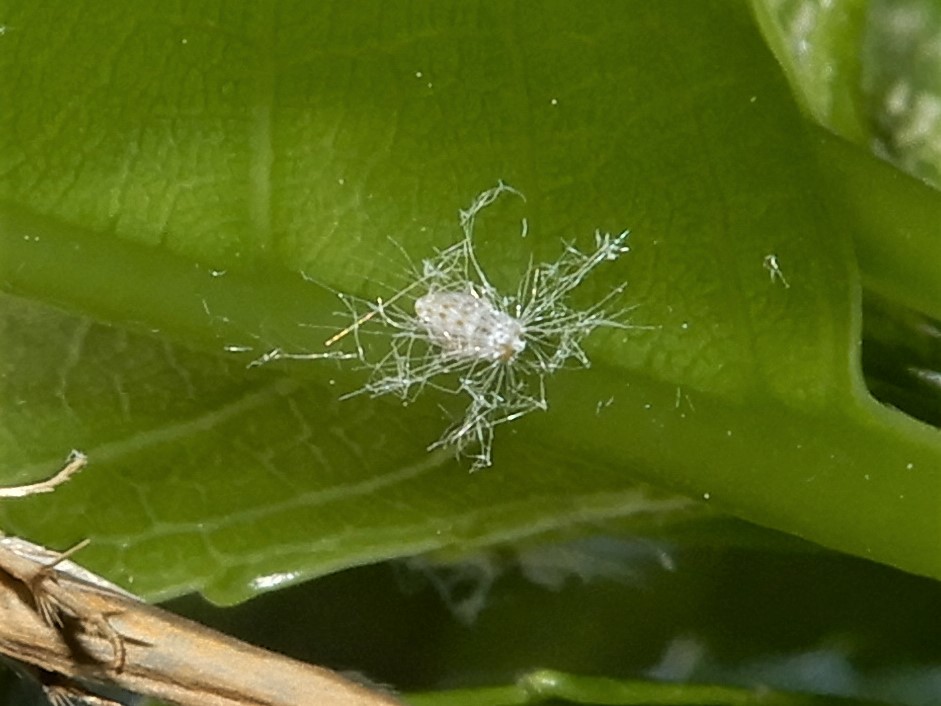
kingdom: Animalia
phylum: Arthropoda
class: Insecta
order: Hemiptera
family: Ricaniidae
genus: Scolypopa
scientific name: Scolypopa australis
